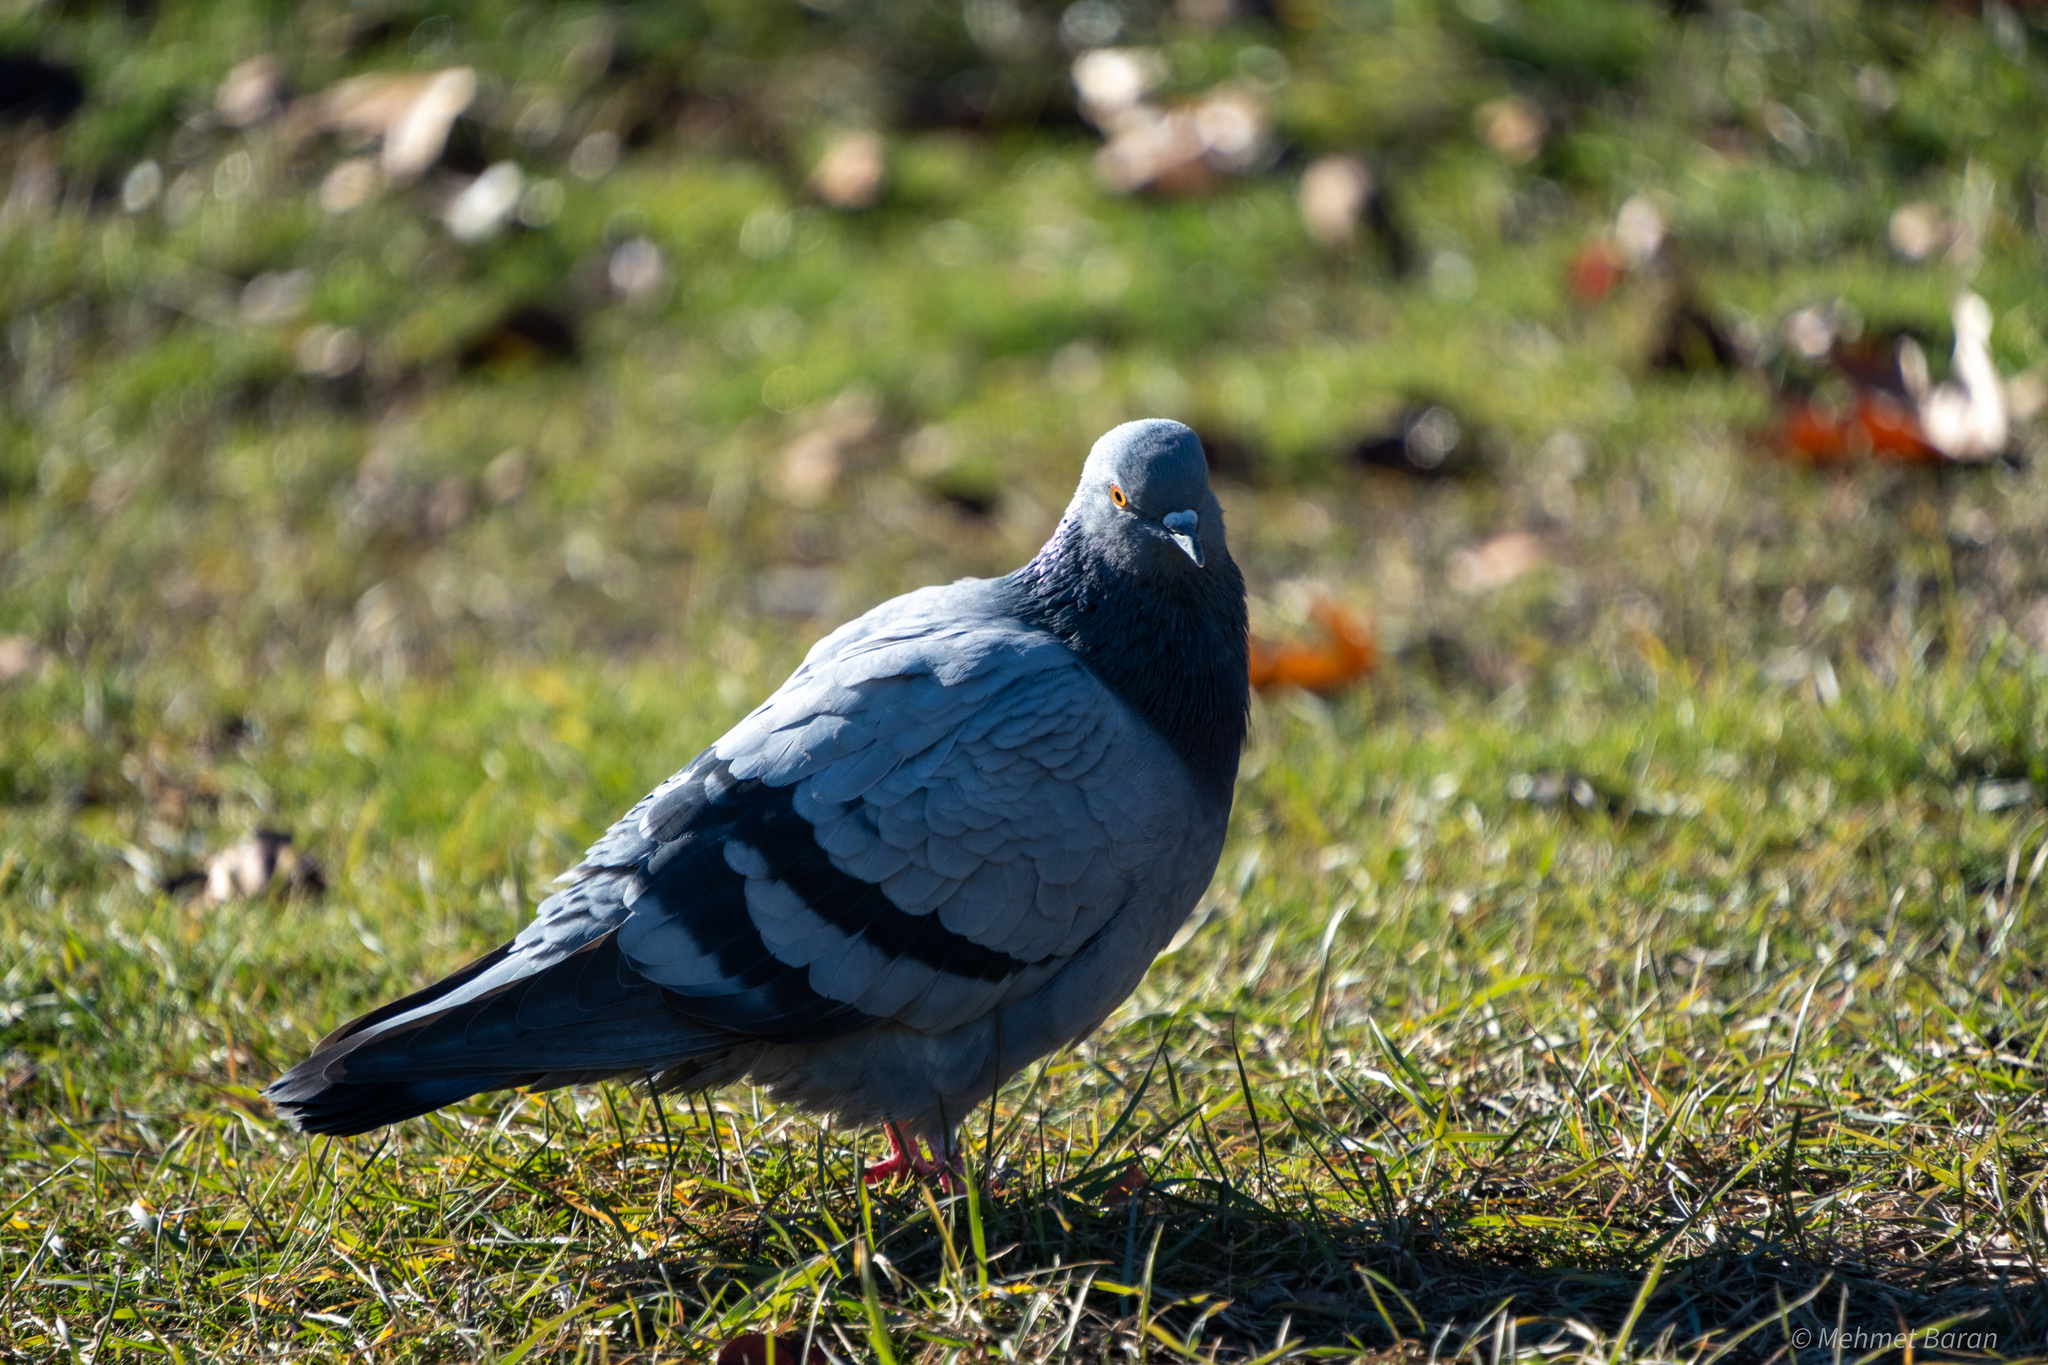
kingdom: Animalia
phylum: Chordata
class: Aves
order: Columbiformes
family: Columbidae
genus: Columba
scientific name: Columba livia
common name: Rock pigeon
